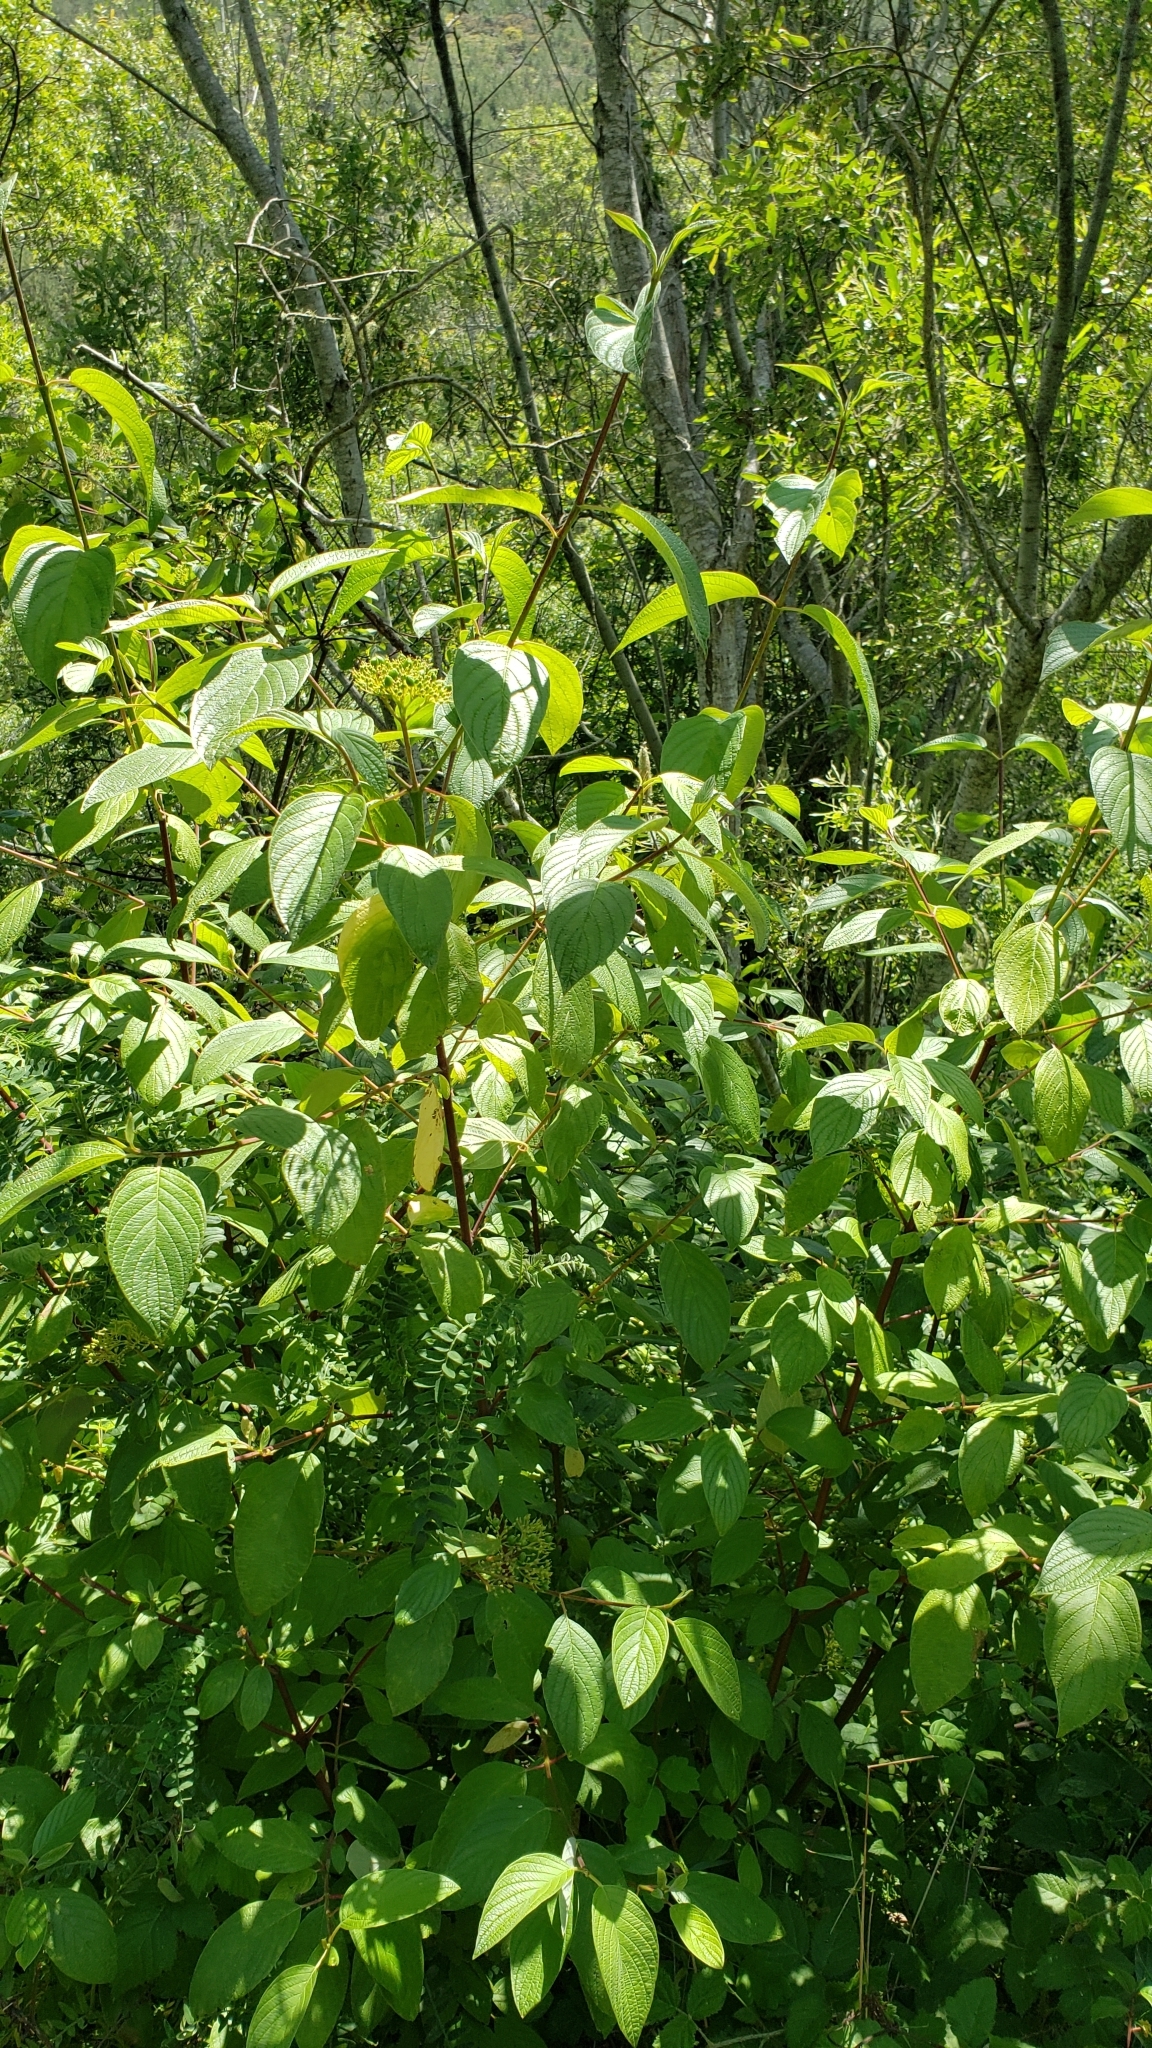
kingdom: Plantae
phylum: Tracheophyta
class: Magnoliopsida
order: Cornales
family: Cornaceae
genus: Cornus
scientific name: Cornus sericea
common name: Red-osier dogwood
